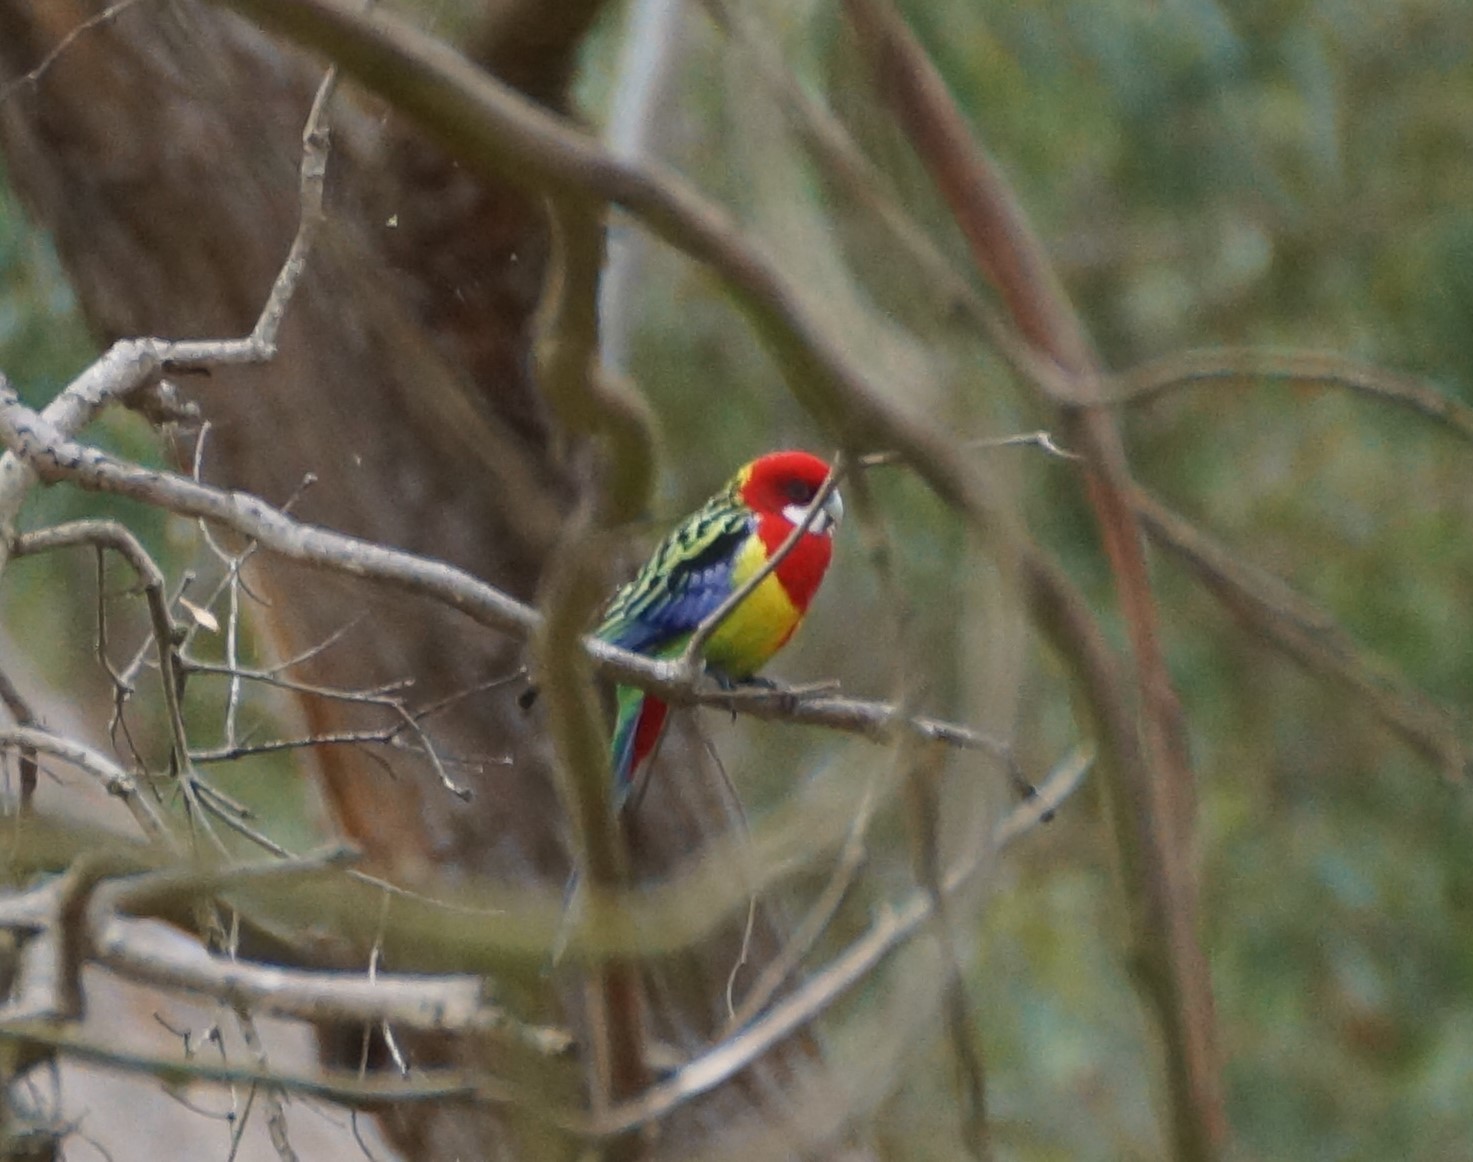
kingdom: Animalia
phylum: Chordata
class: Aves
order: Psittaciformes
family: Psittacidae
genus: Platycercus
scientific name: Platycercus eximius
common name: Eastern rosella
